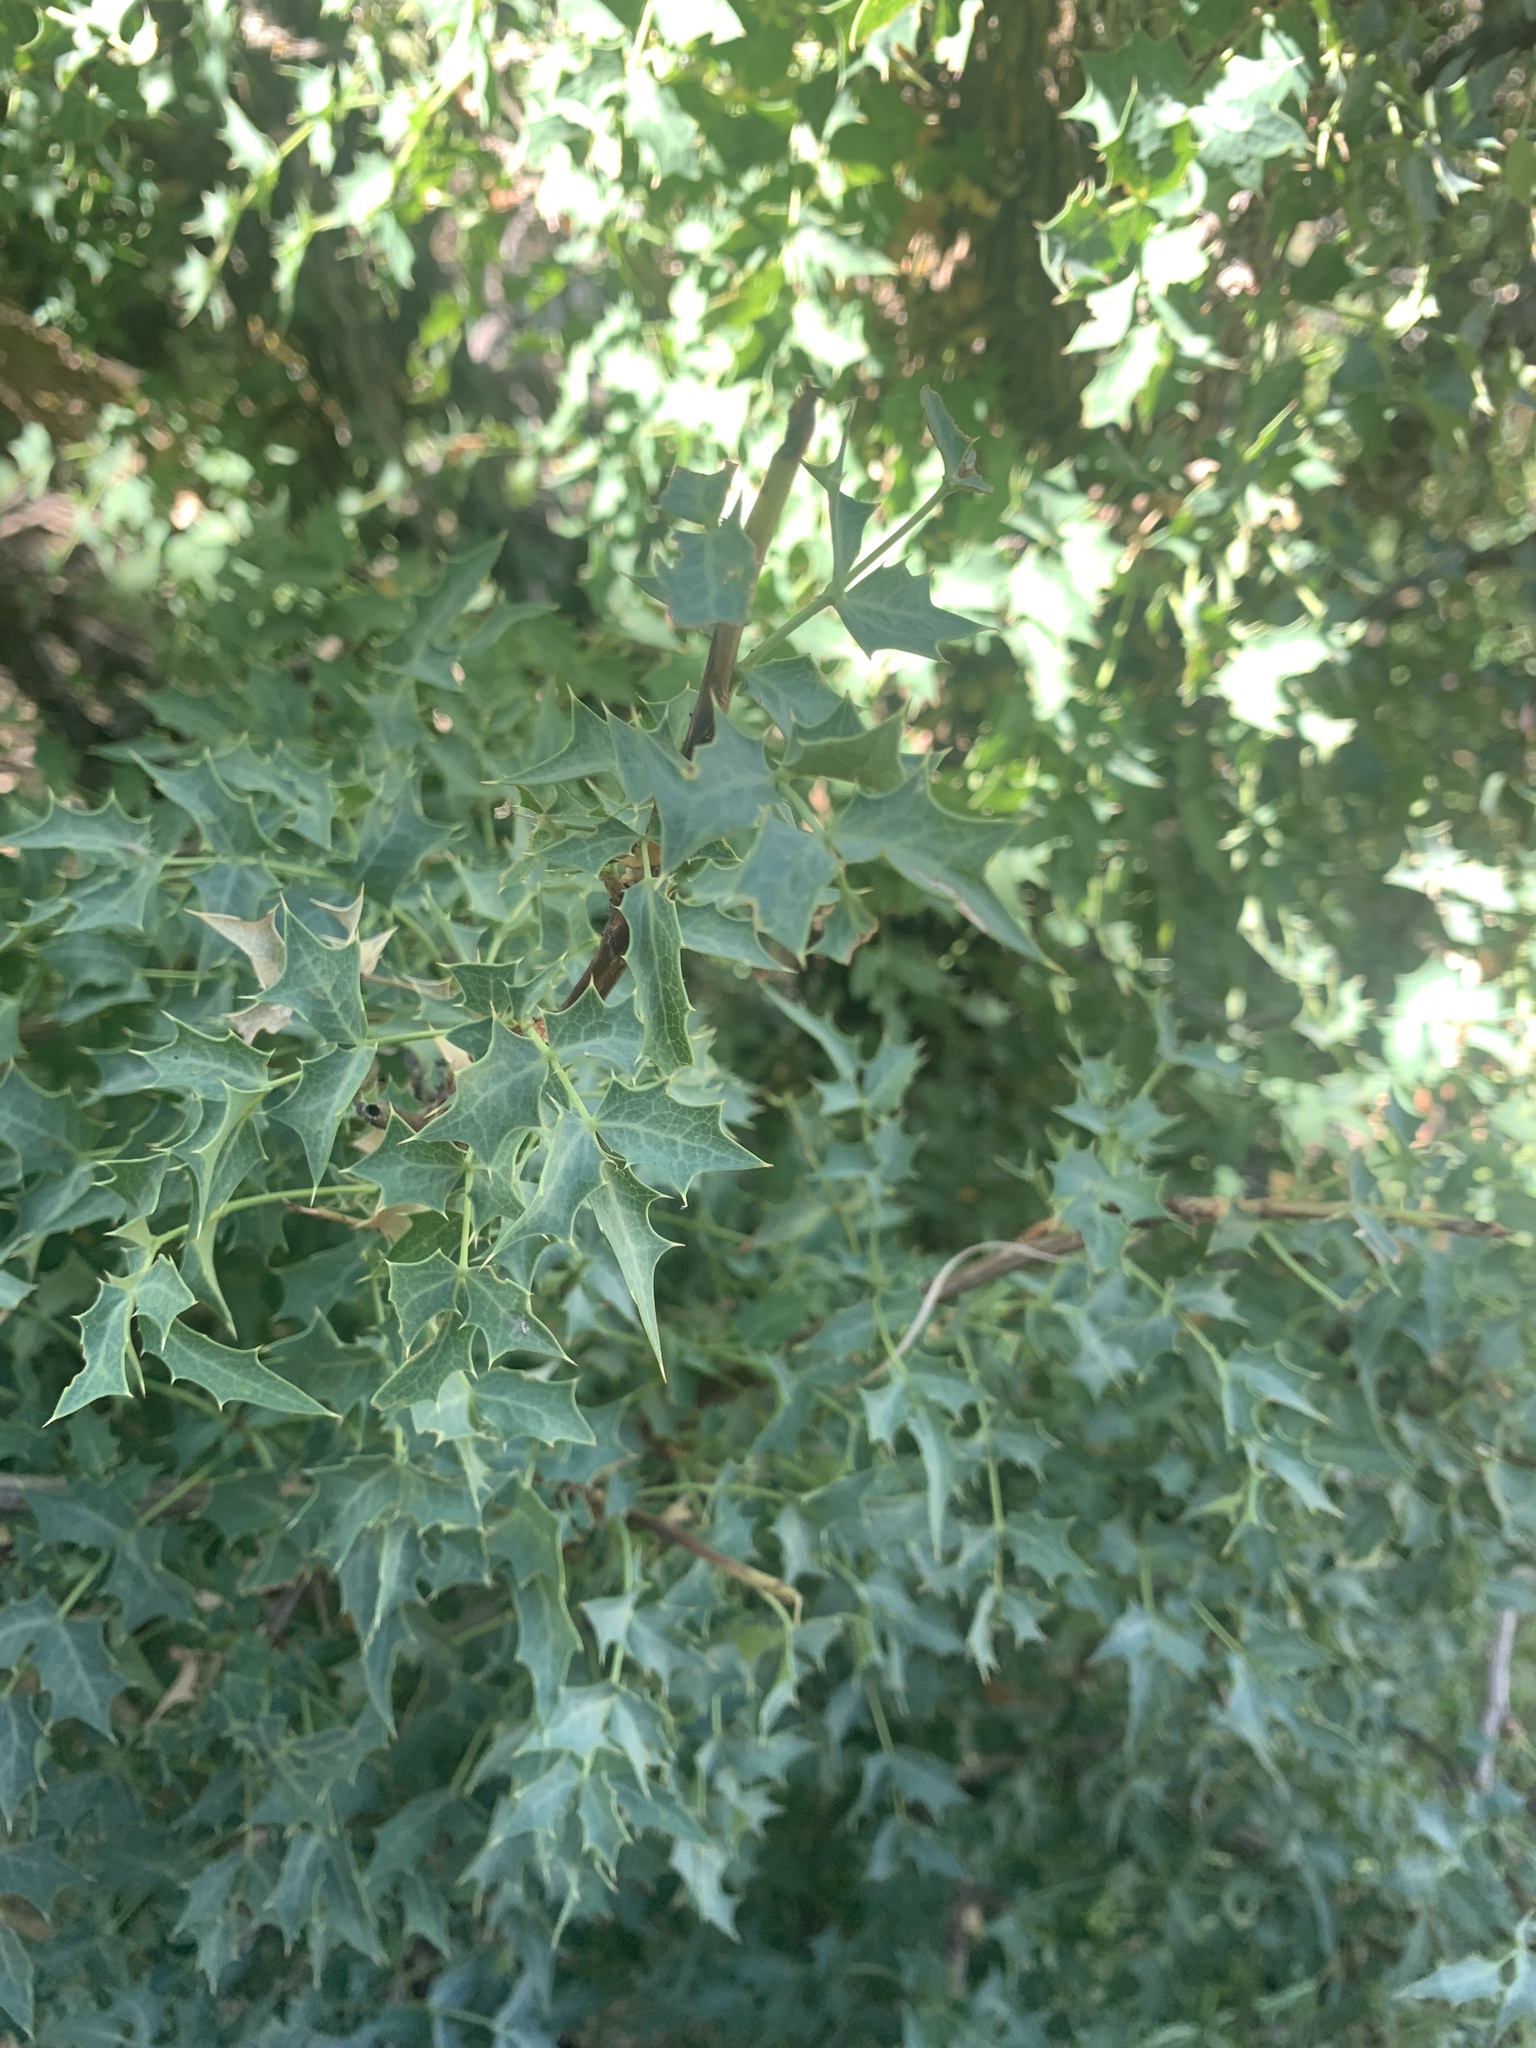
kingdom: Plantae
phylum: Tracheophyta
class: Magnoliopsida
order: Ranunculales
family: Berberidaceae
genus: Alloberberis
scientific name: Alloberberis fremontii
